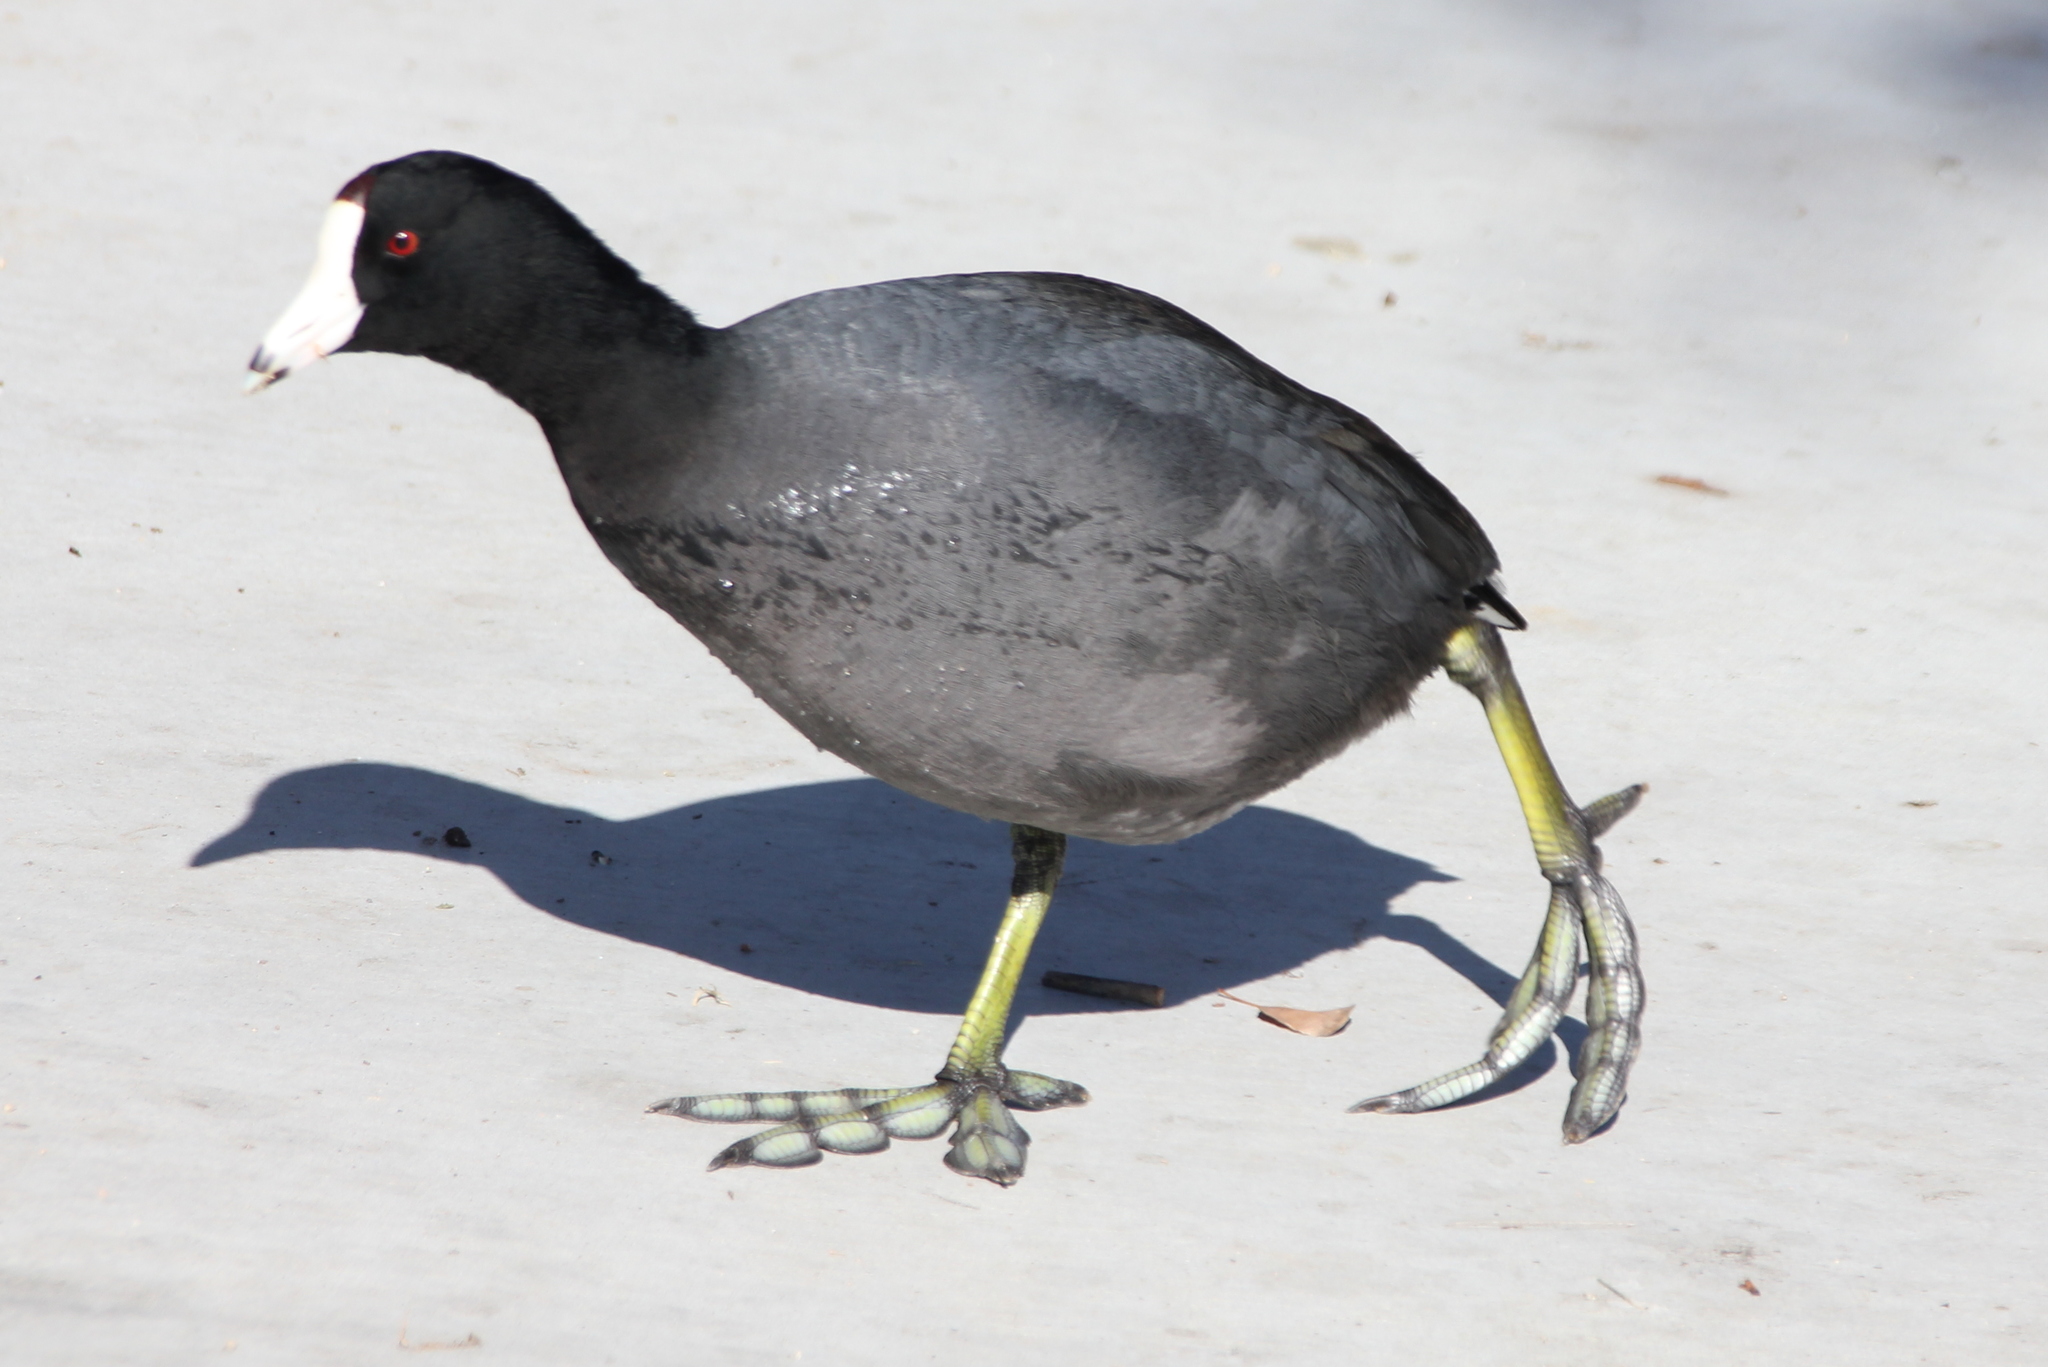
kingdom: Animalia
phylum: Chordata
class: Aves
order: Gruiformes
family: Rallidae
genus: Fulica
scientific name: Fulica americana
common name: American coot
